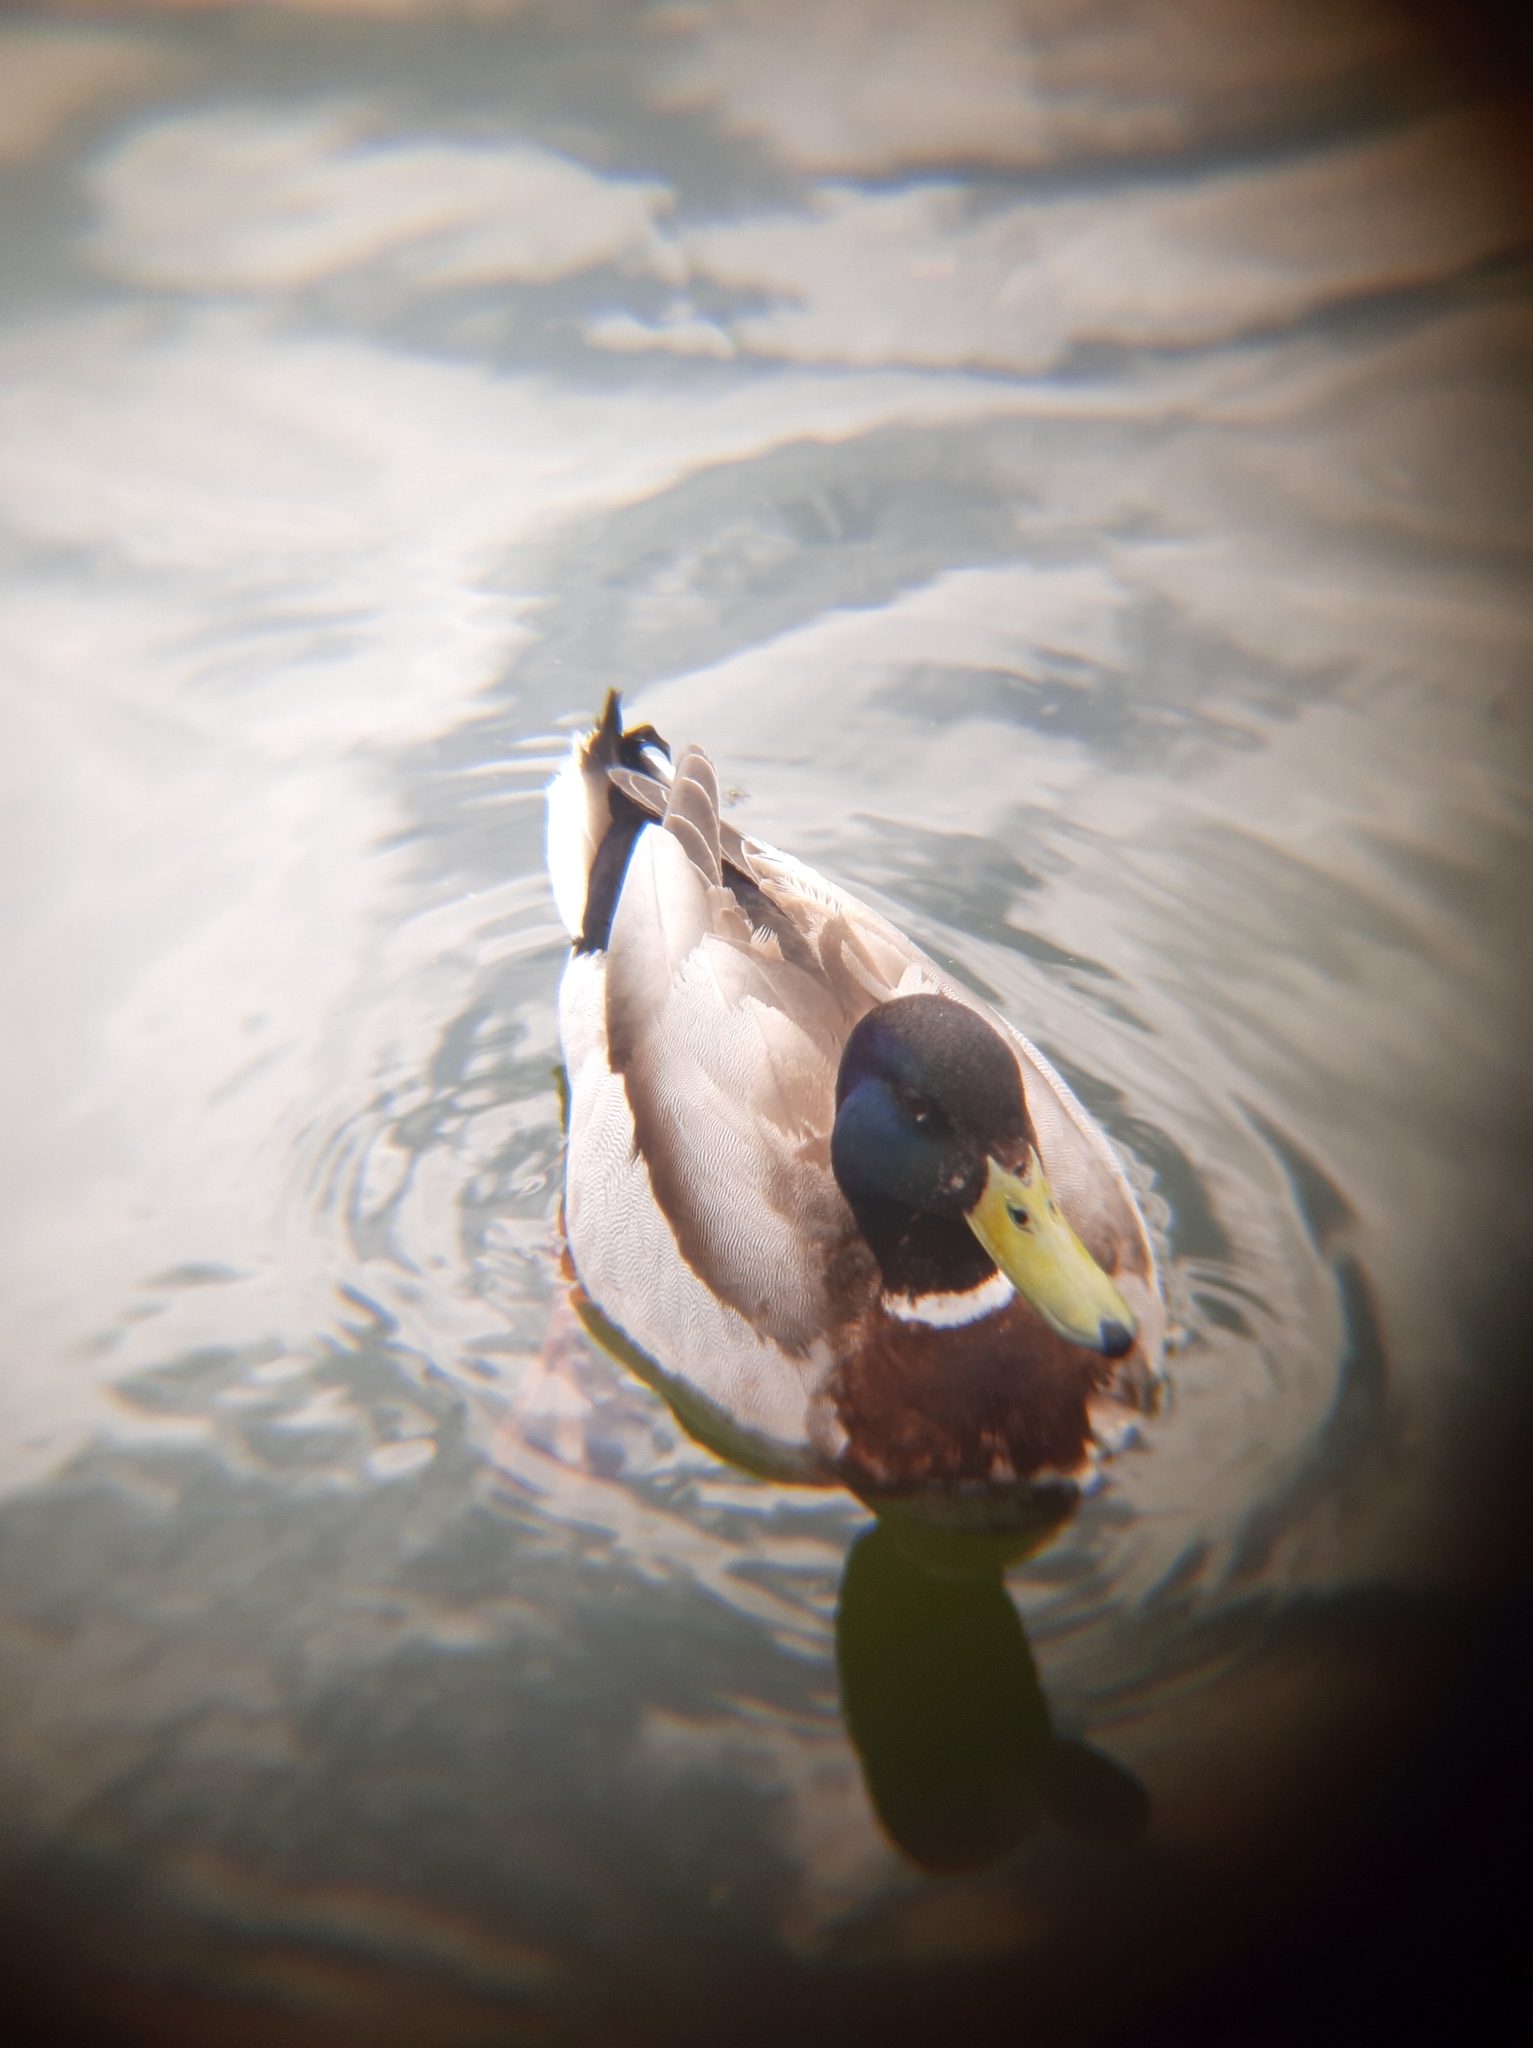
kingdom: Animalia
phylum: Chordata
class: Aves
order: Anseriformes
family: Anatidae
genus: Anas
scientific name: Anas platyrhynchos
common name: Mallard
